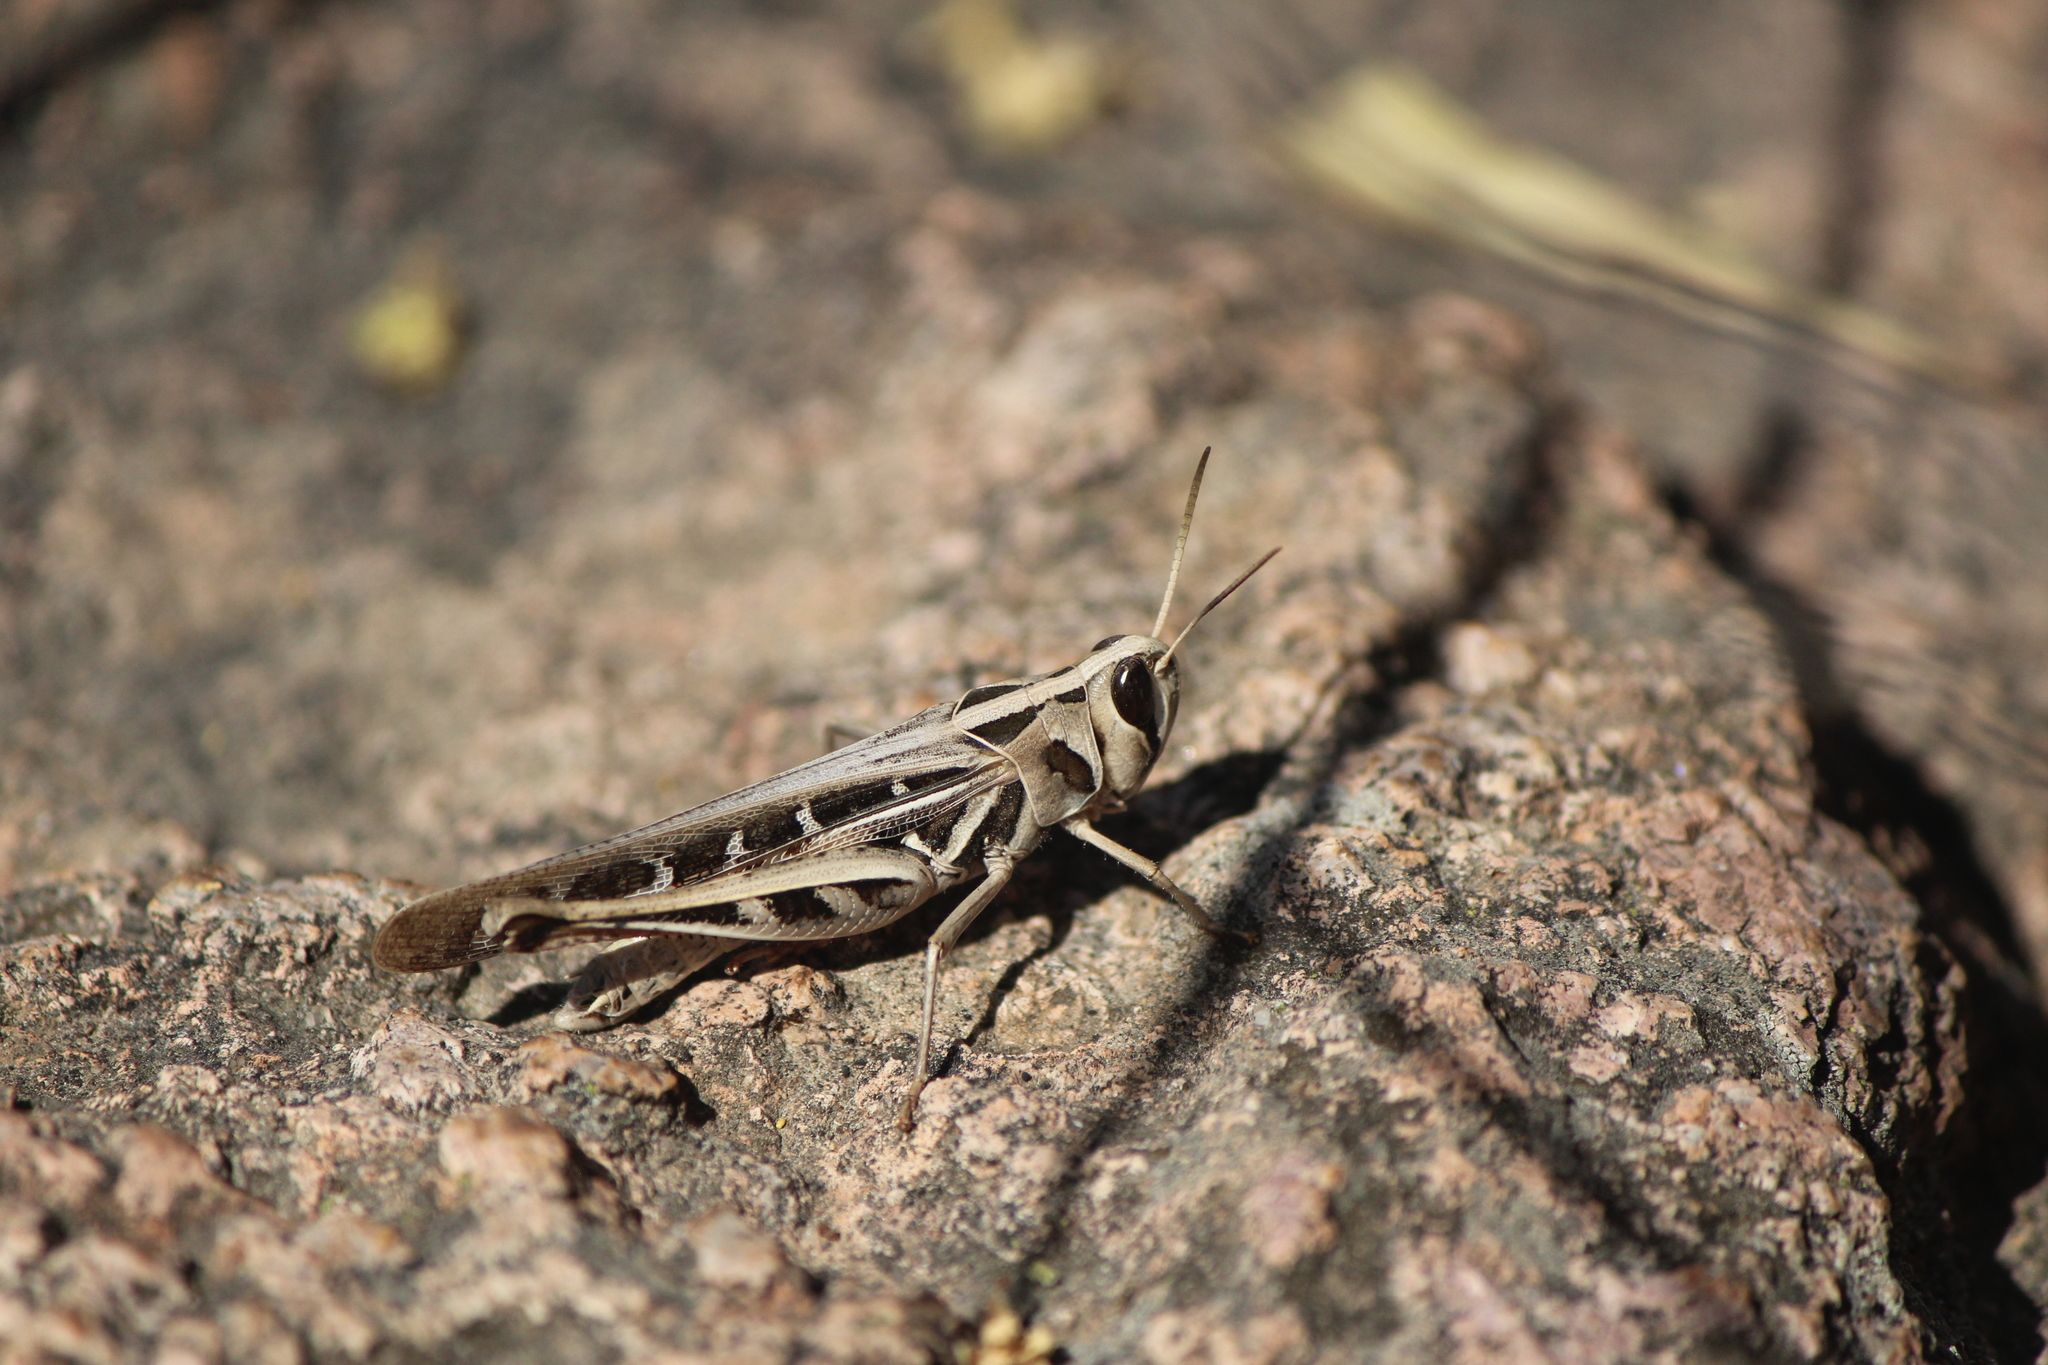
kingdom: Animalia
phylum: Arthropoda
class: Insecta
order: Orthoptera
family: Acrididae
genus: Rhammatocerus
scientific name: Rhammatocerus viatorius
